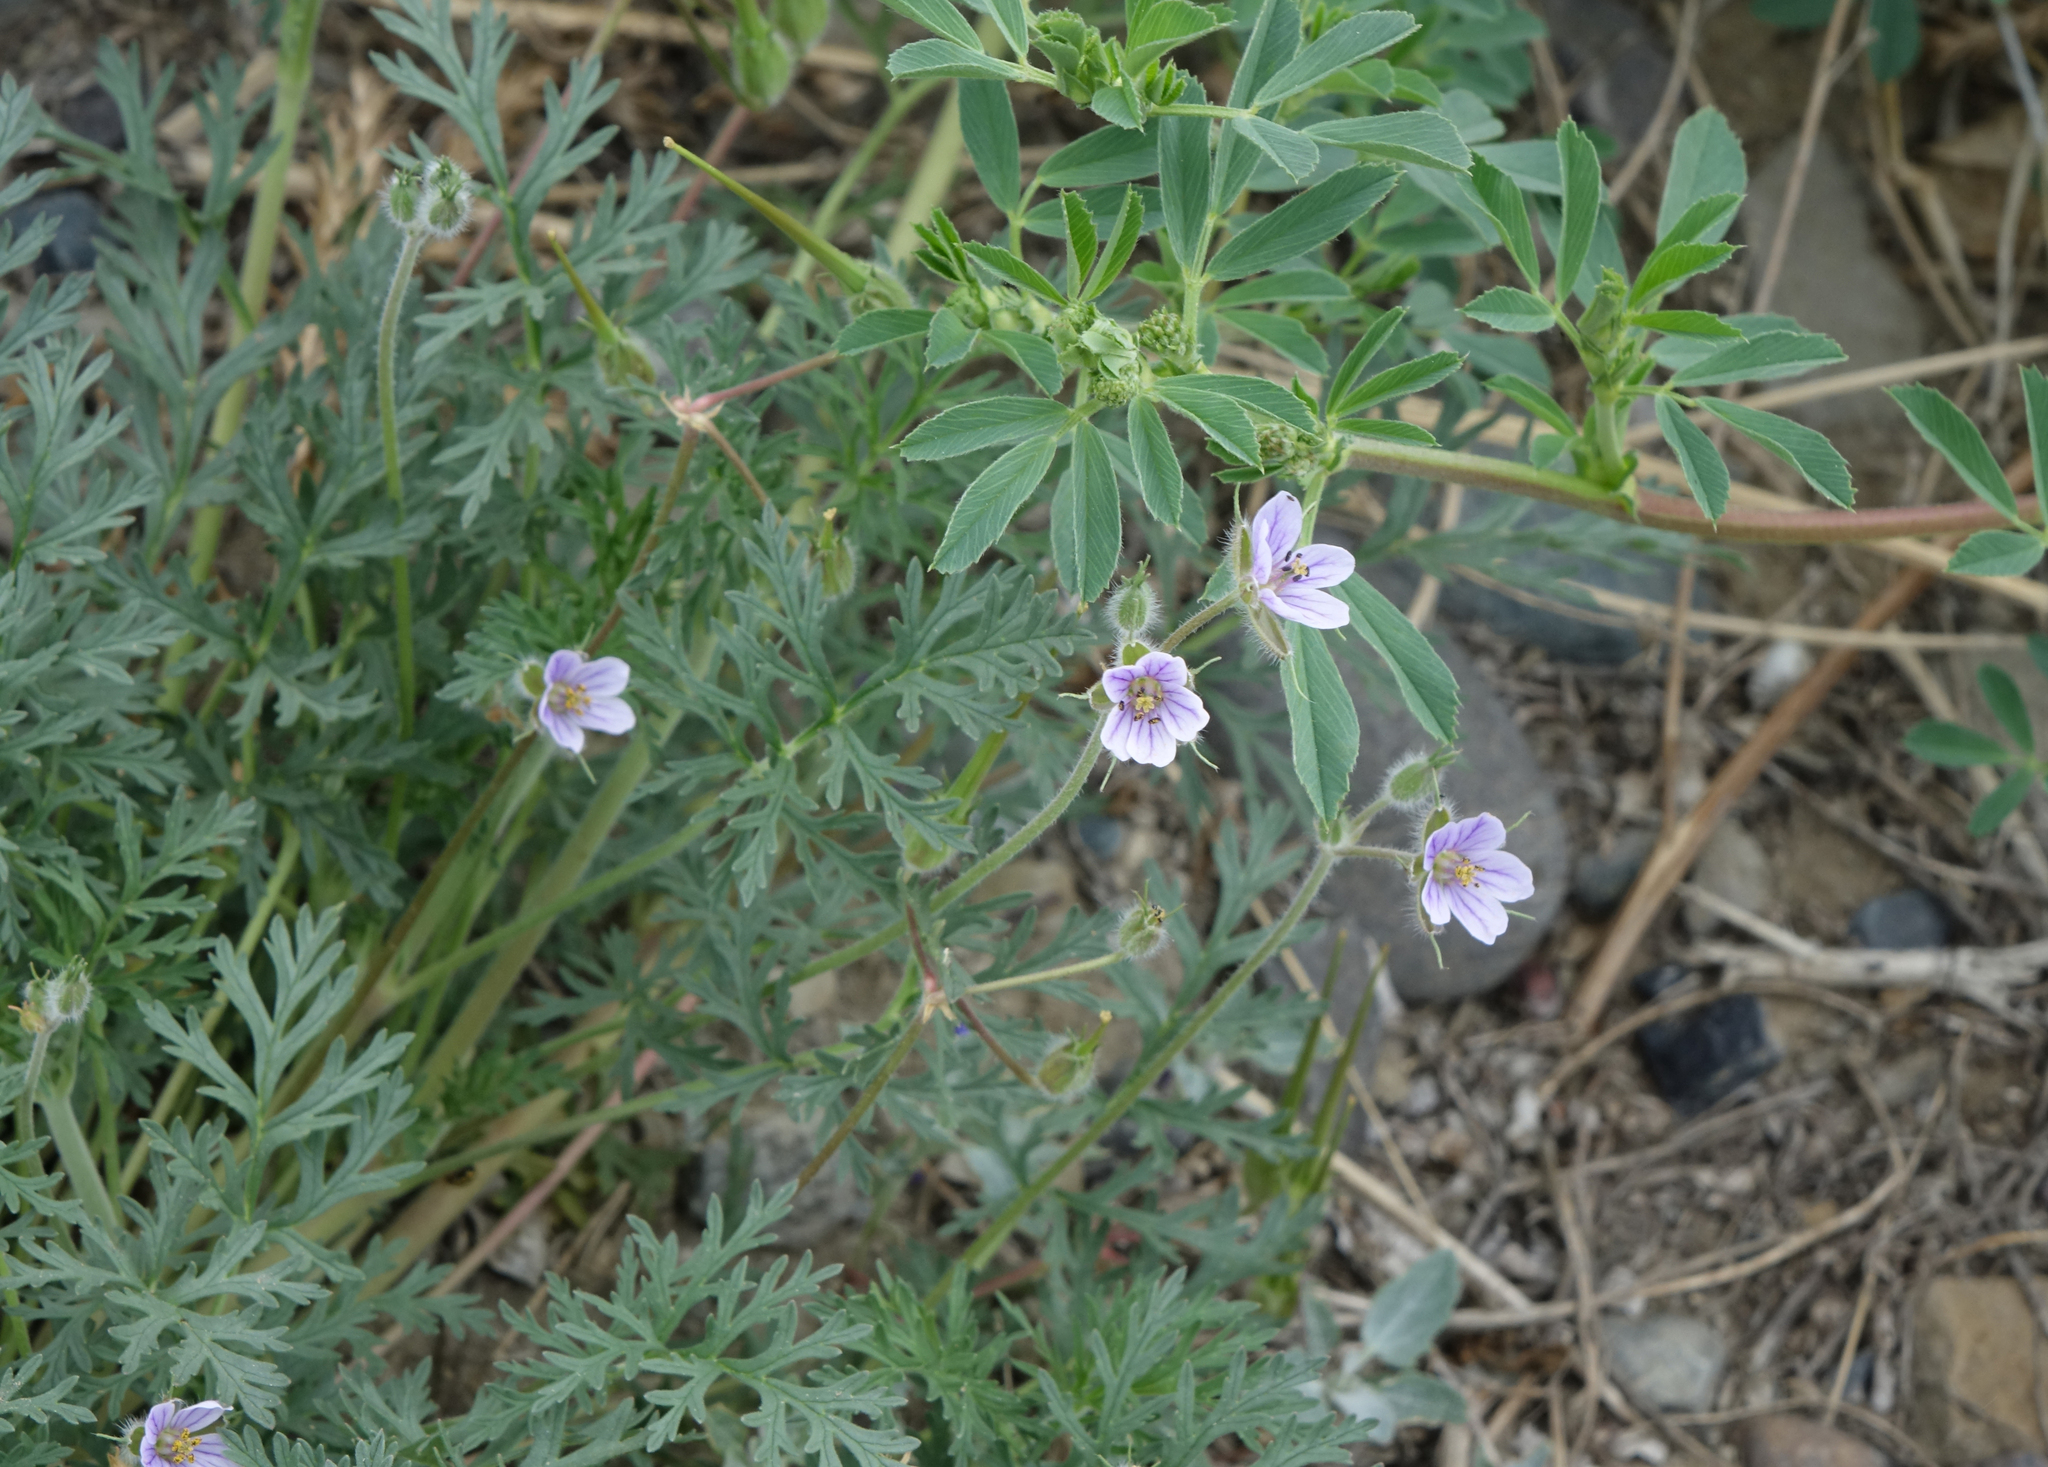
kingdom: Plantae
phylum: Tracheophyta
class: Magnoliopsida
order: Geraniales
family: Geraniaceae
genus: Erodium
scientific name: Erodium stephanianum
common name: Stephen's stork's bill
